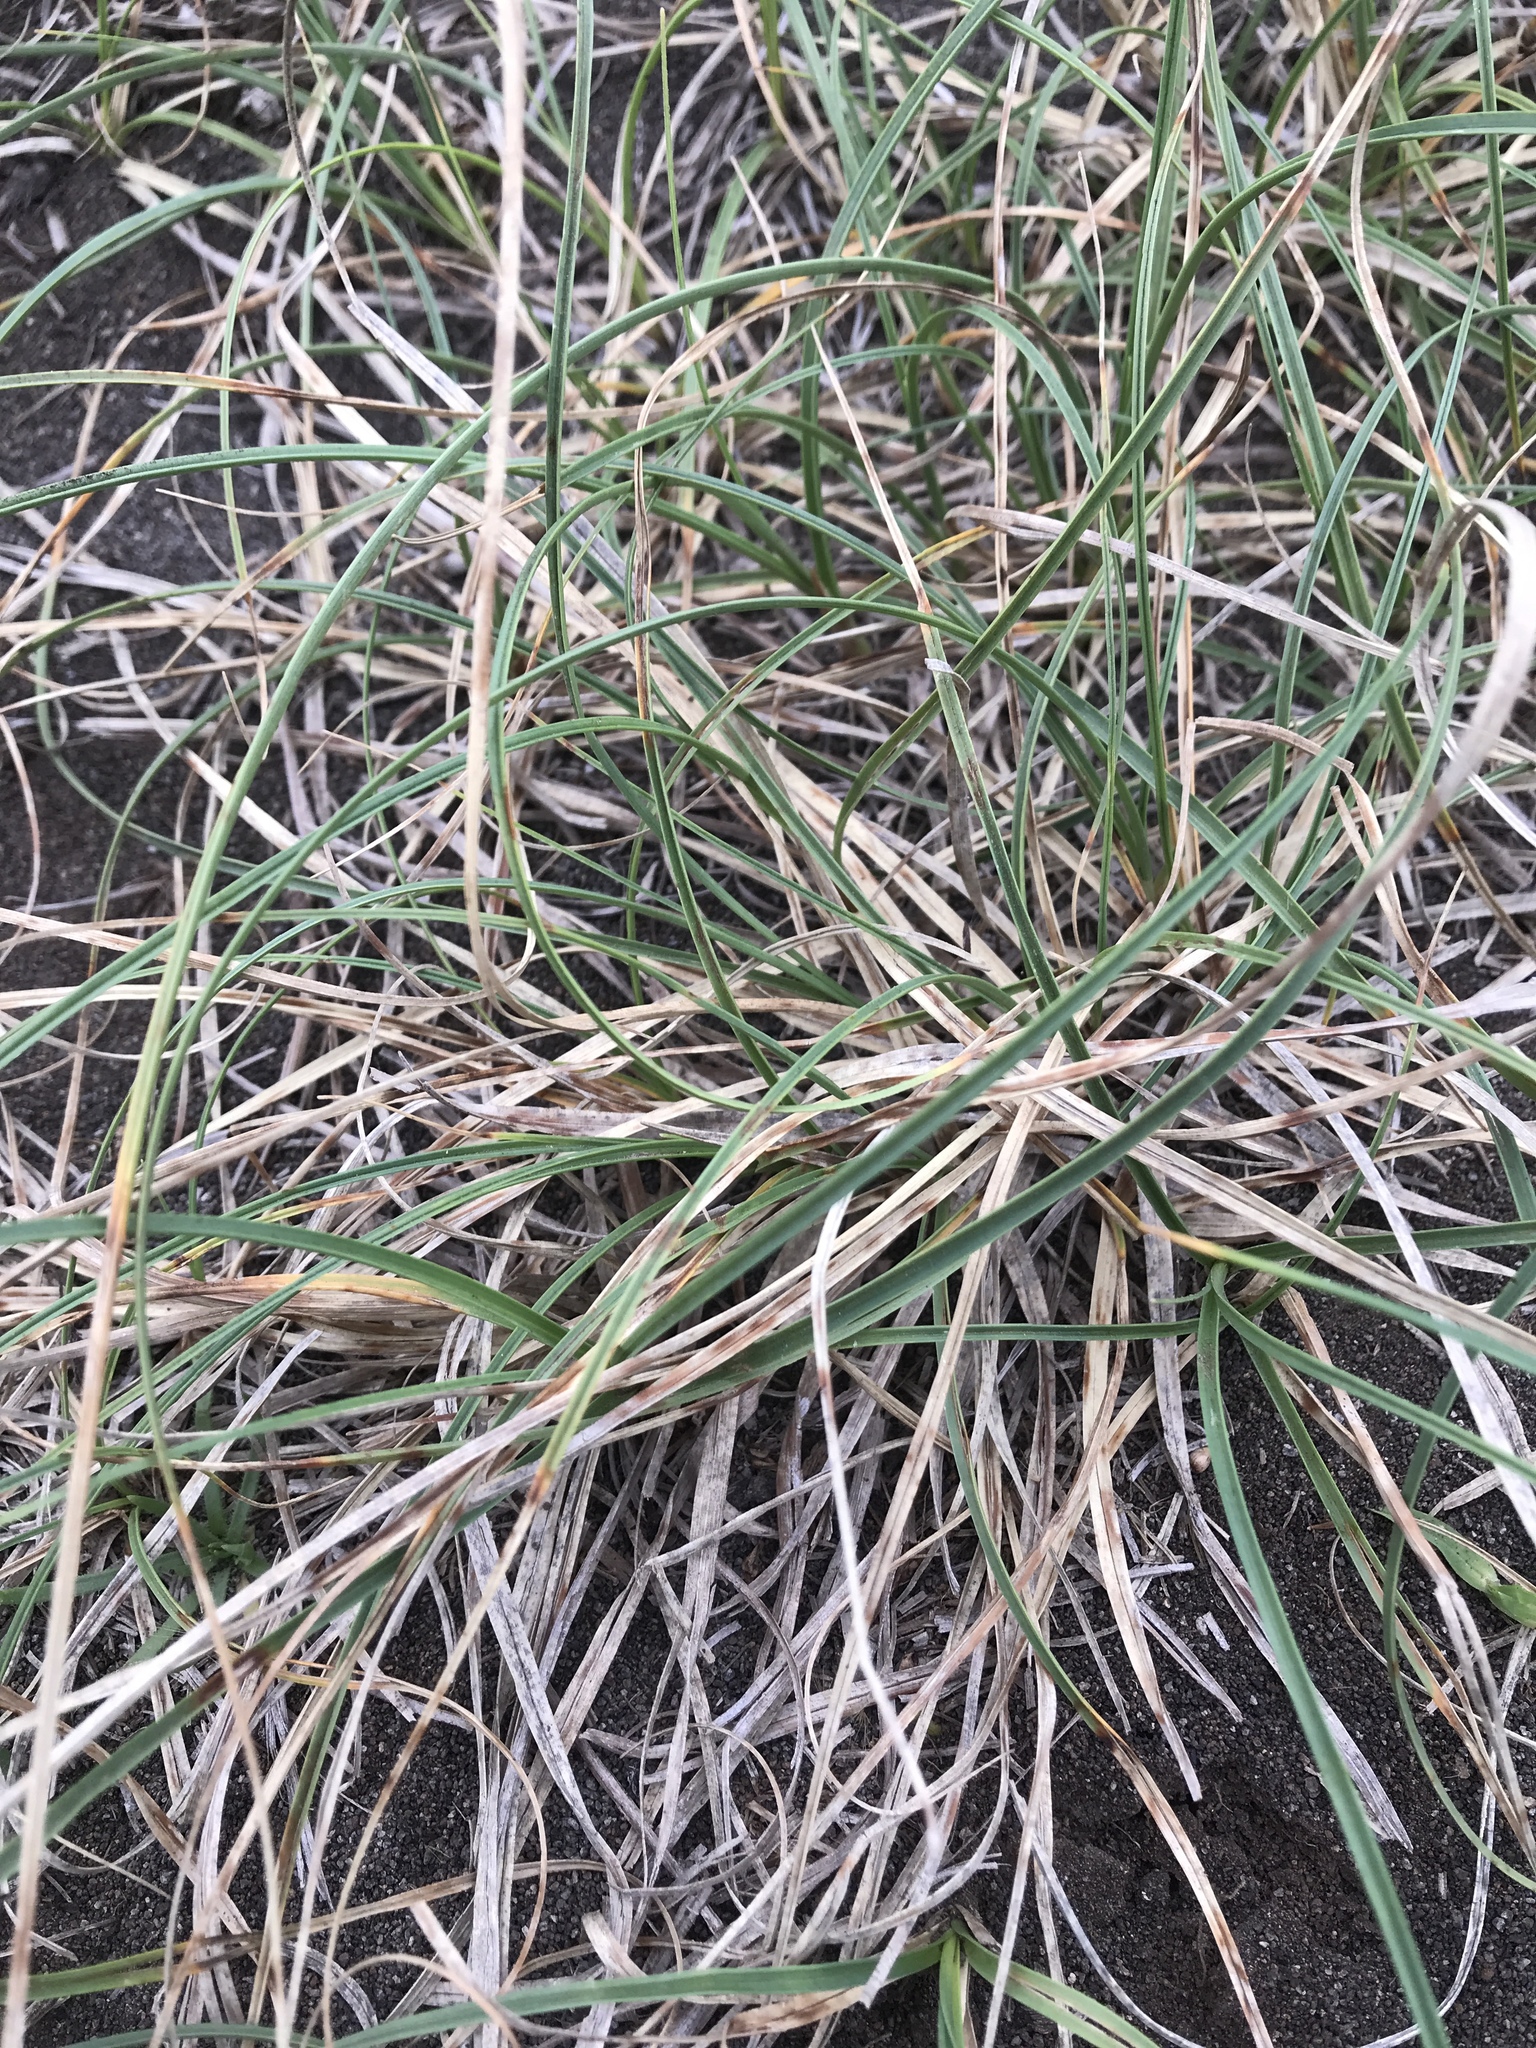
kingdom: Plantae
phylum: Tracheophyta
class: Liliopsida
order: Poales
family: Cyperaceae
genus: Carex
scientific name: Carex pumila
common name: Dwarf sedge
